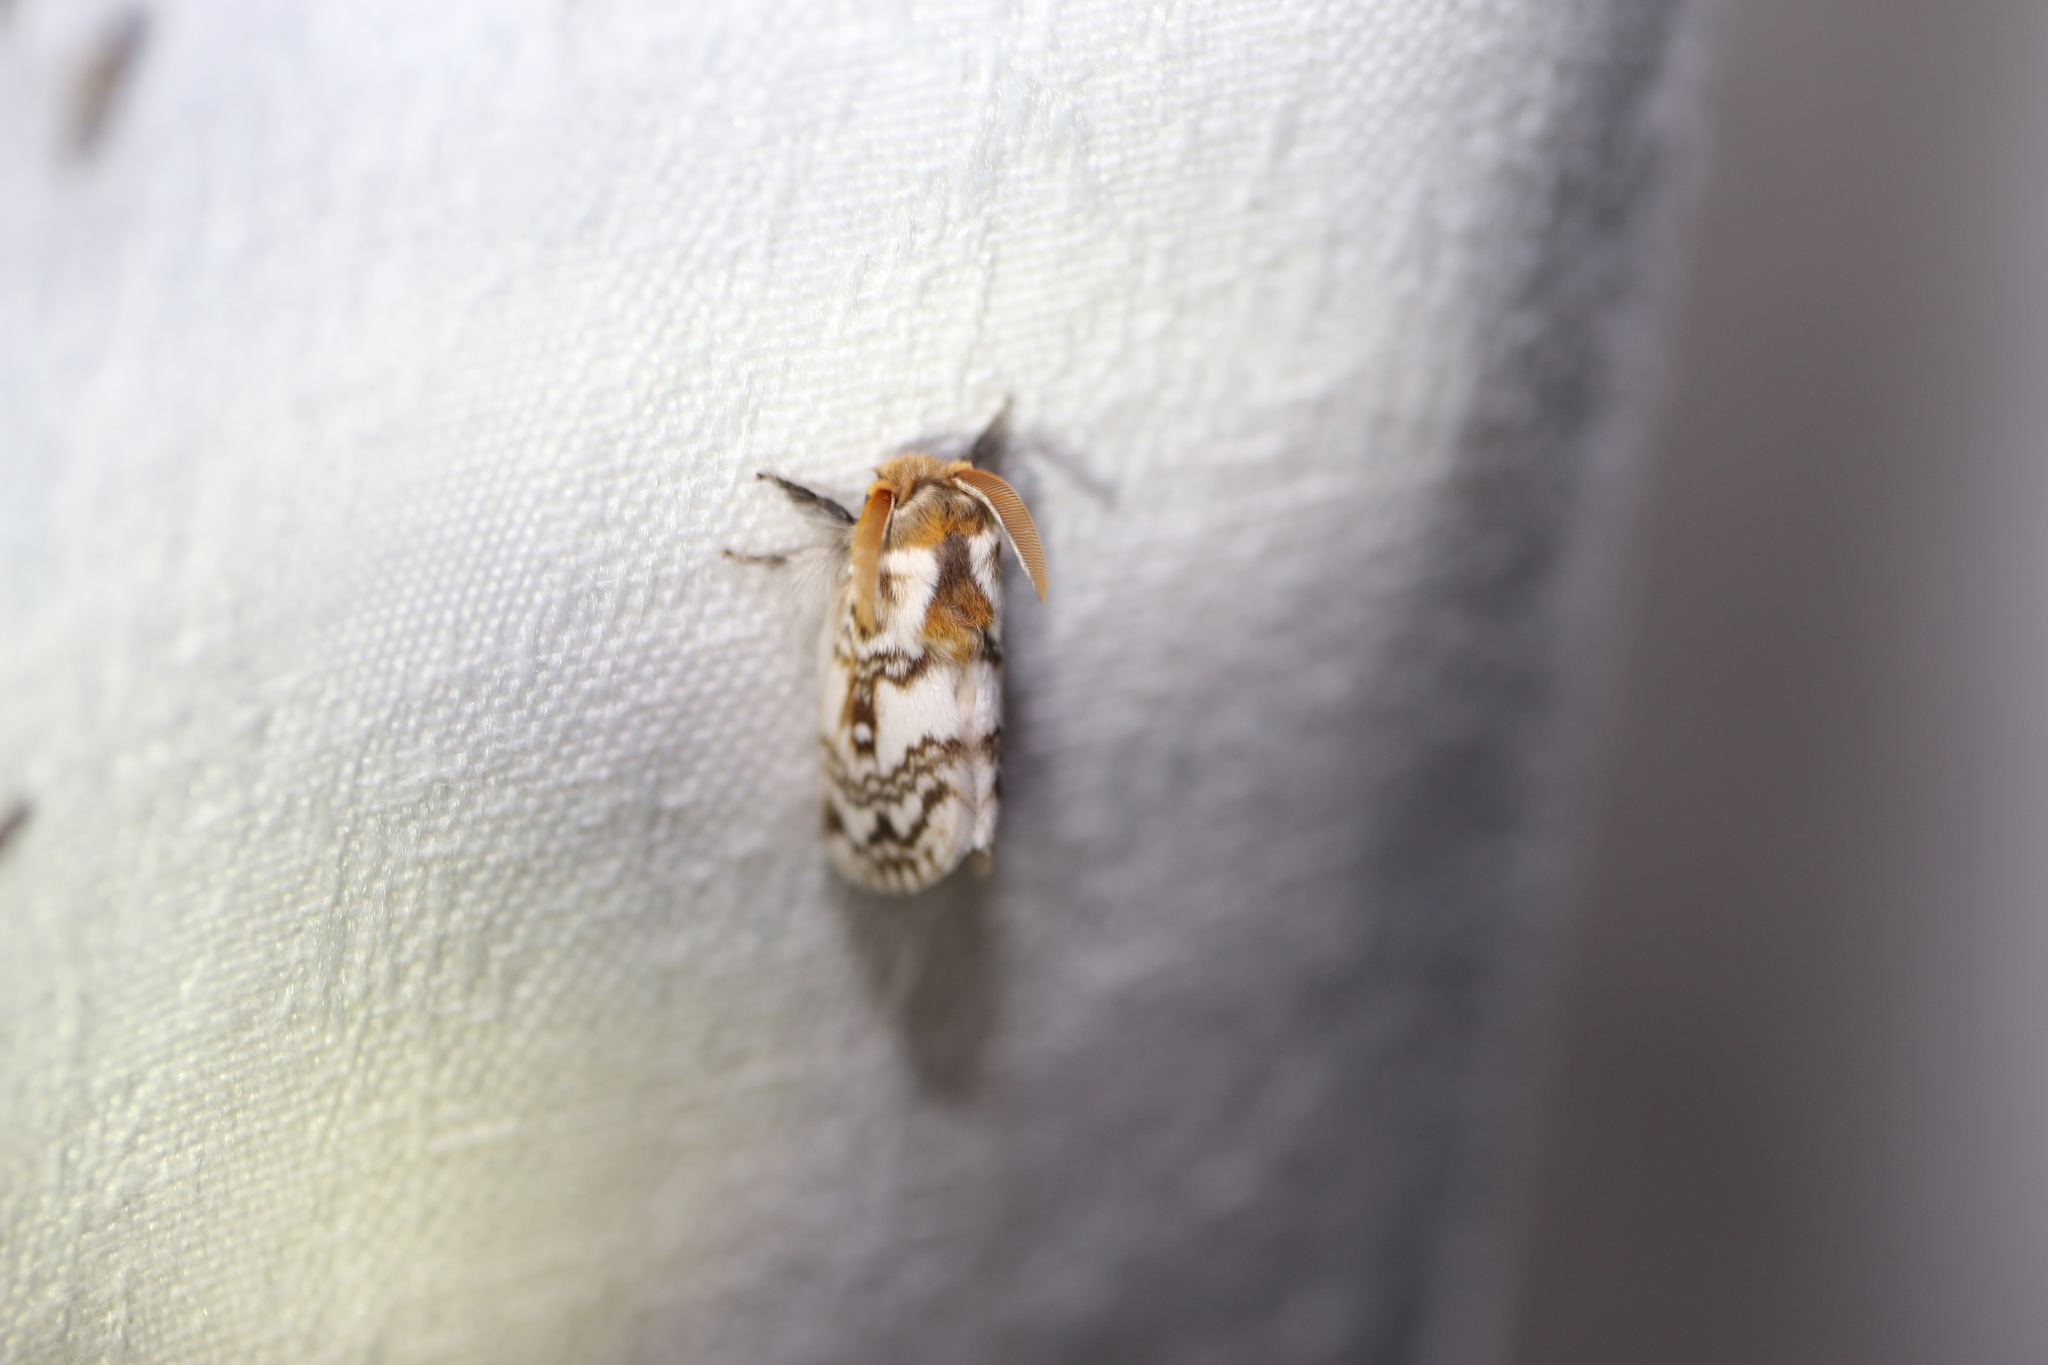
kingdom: Animalia
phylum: Arthropoda
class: Insecta
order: Lepidoptera
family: Lasiocampidae
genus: Pernattia
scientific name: Pernattia brevipennis
